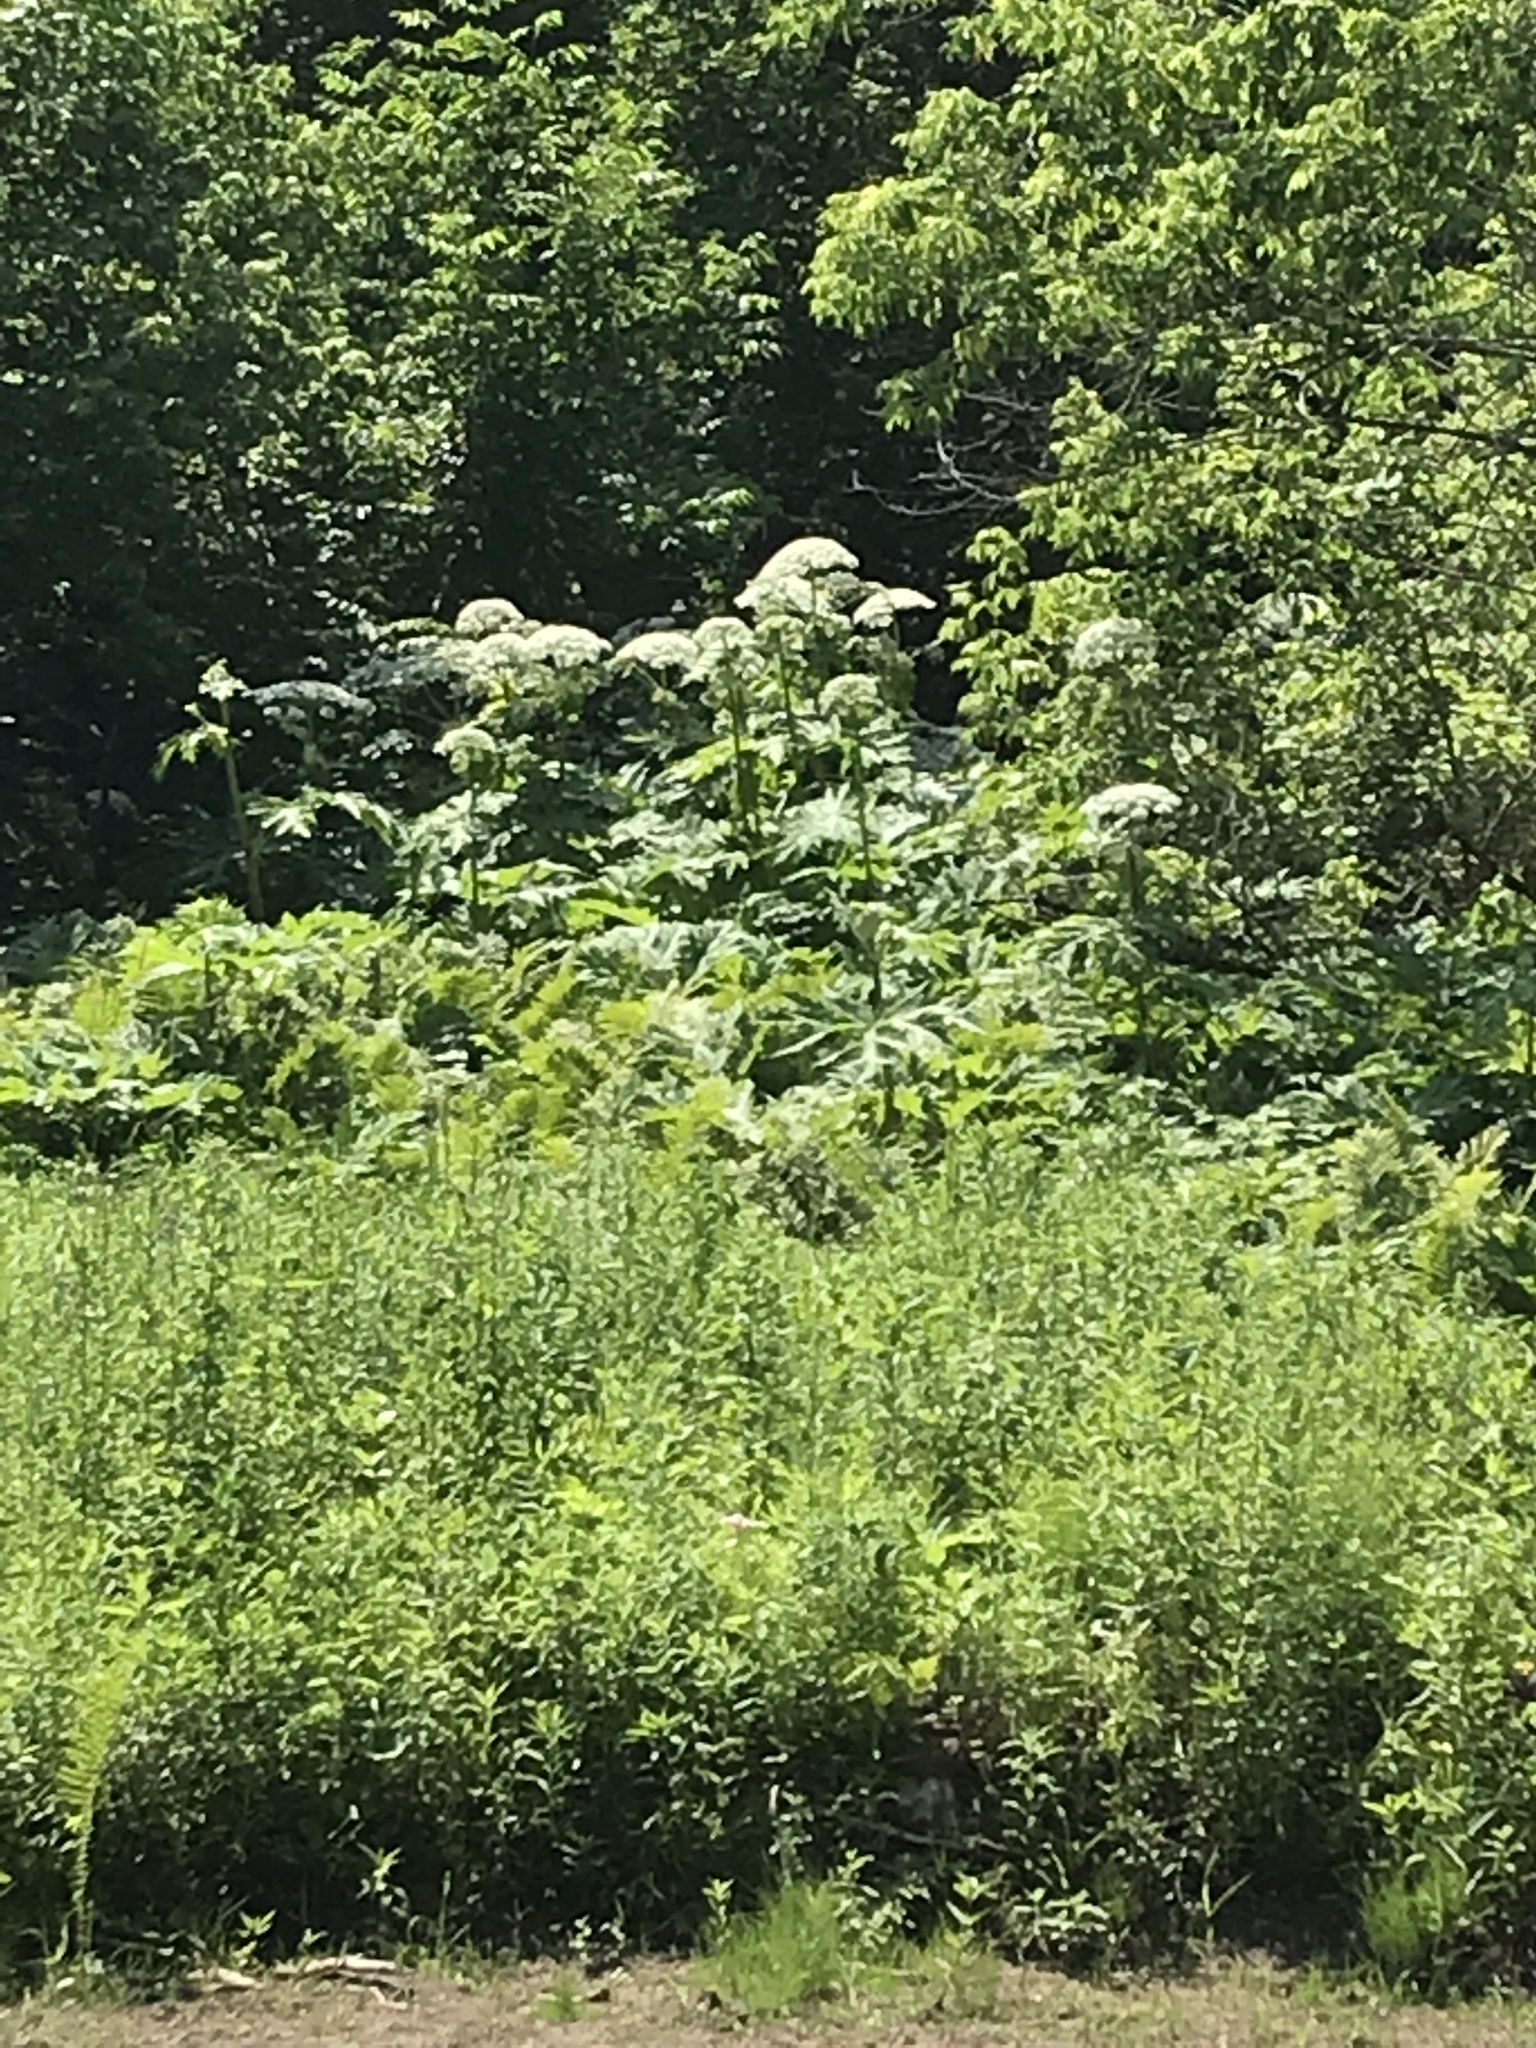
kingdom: Plantae
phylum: Tracheophyta
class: Magnoliopsida
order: Apiales
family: Apiaceae
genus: Heracleum
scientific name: Heracleum mantegazzianum
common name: Giant hogweed
